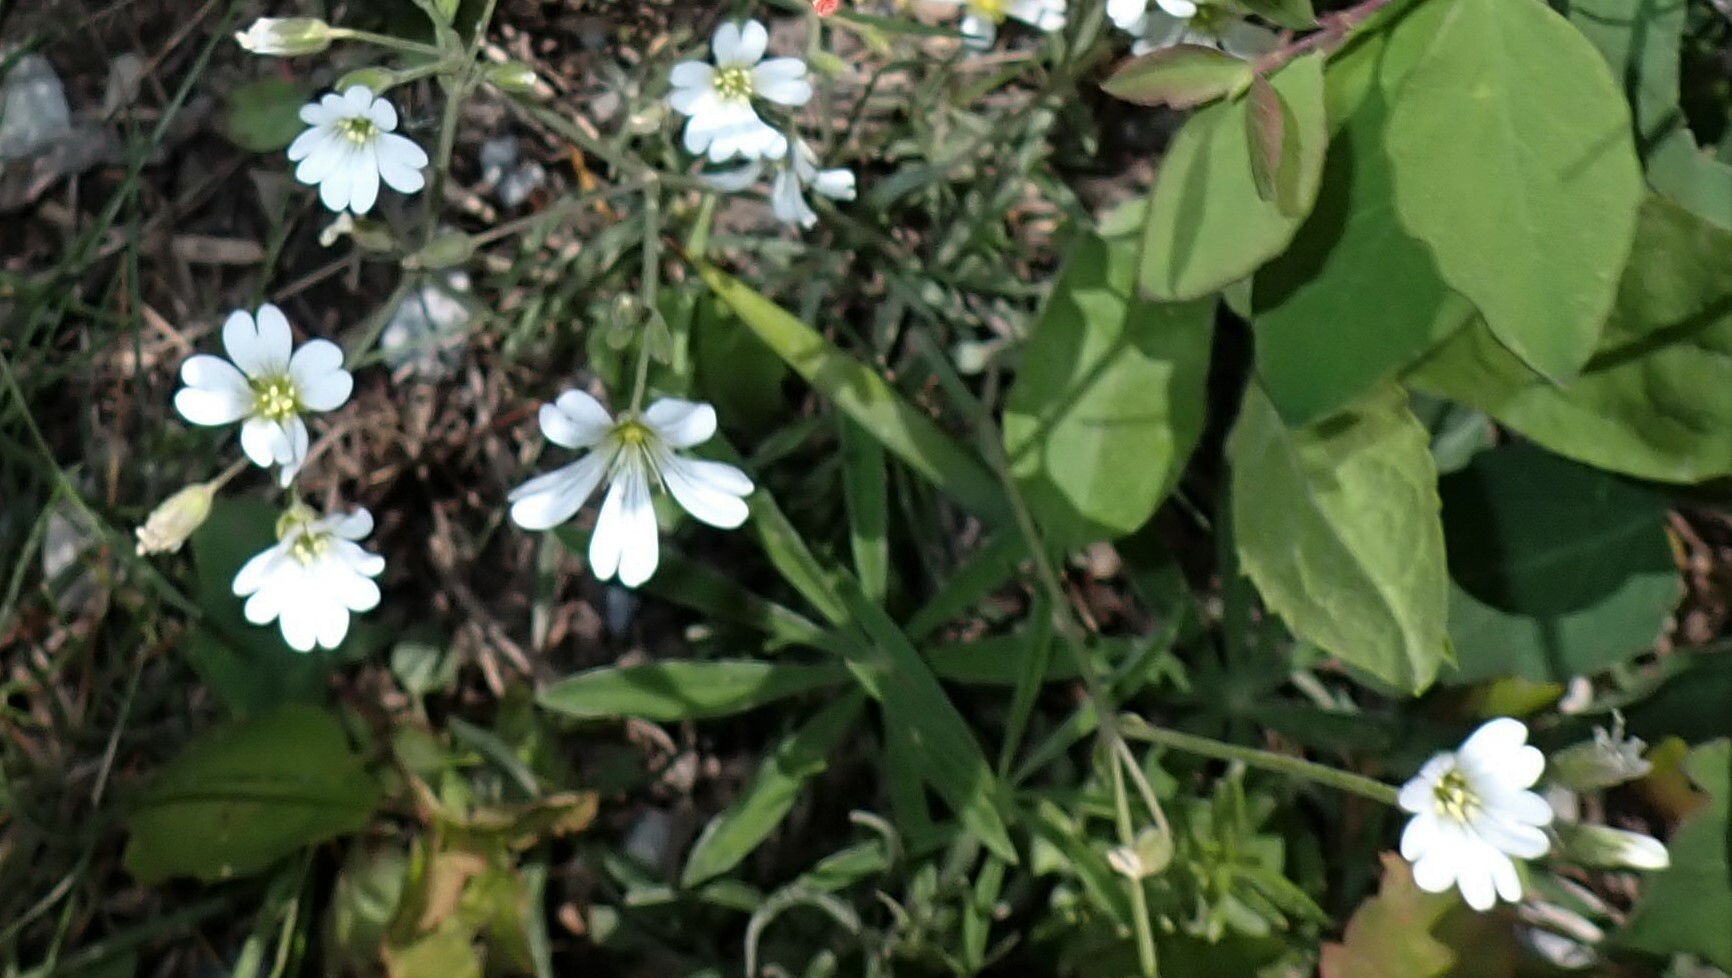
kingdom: Plantae
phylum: Tracheophyta
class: Magnoliopsida
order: Caryophyllales
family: Caryophyllaceae
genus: Cerastium
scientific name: Cerastium arvense
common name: Field mouse-ear
